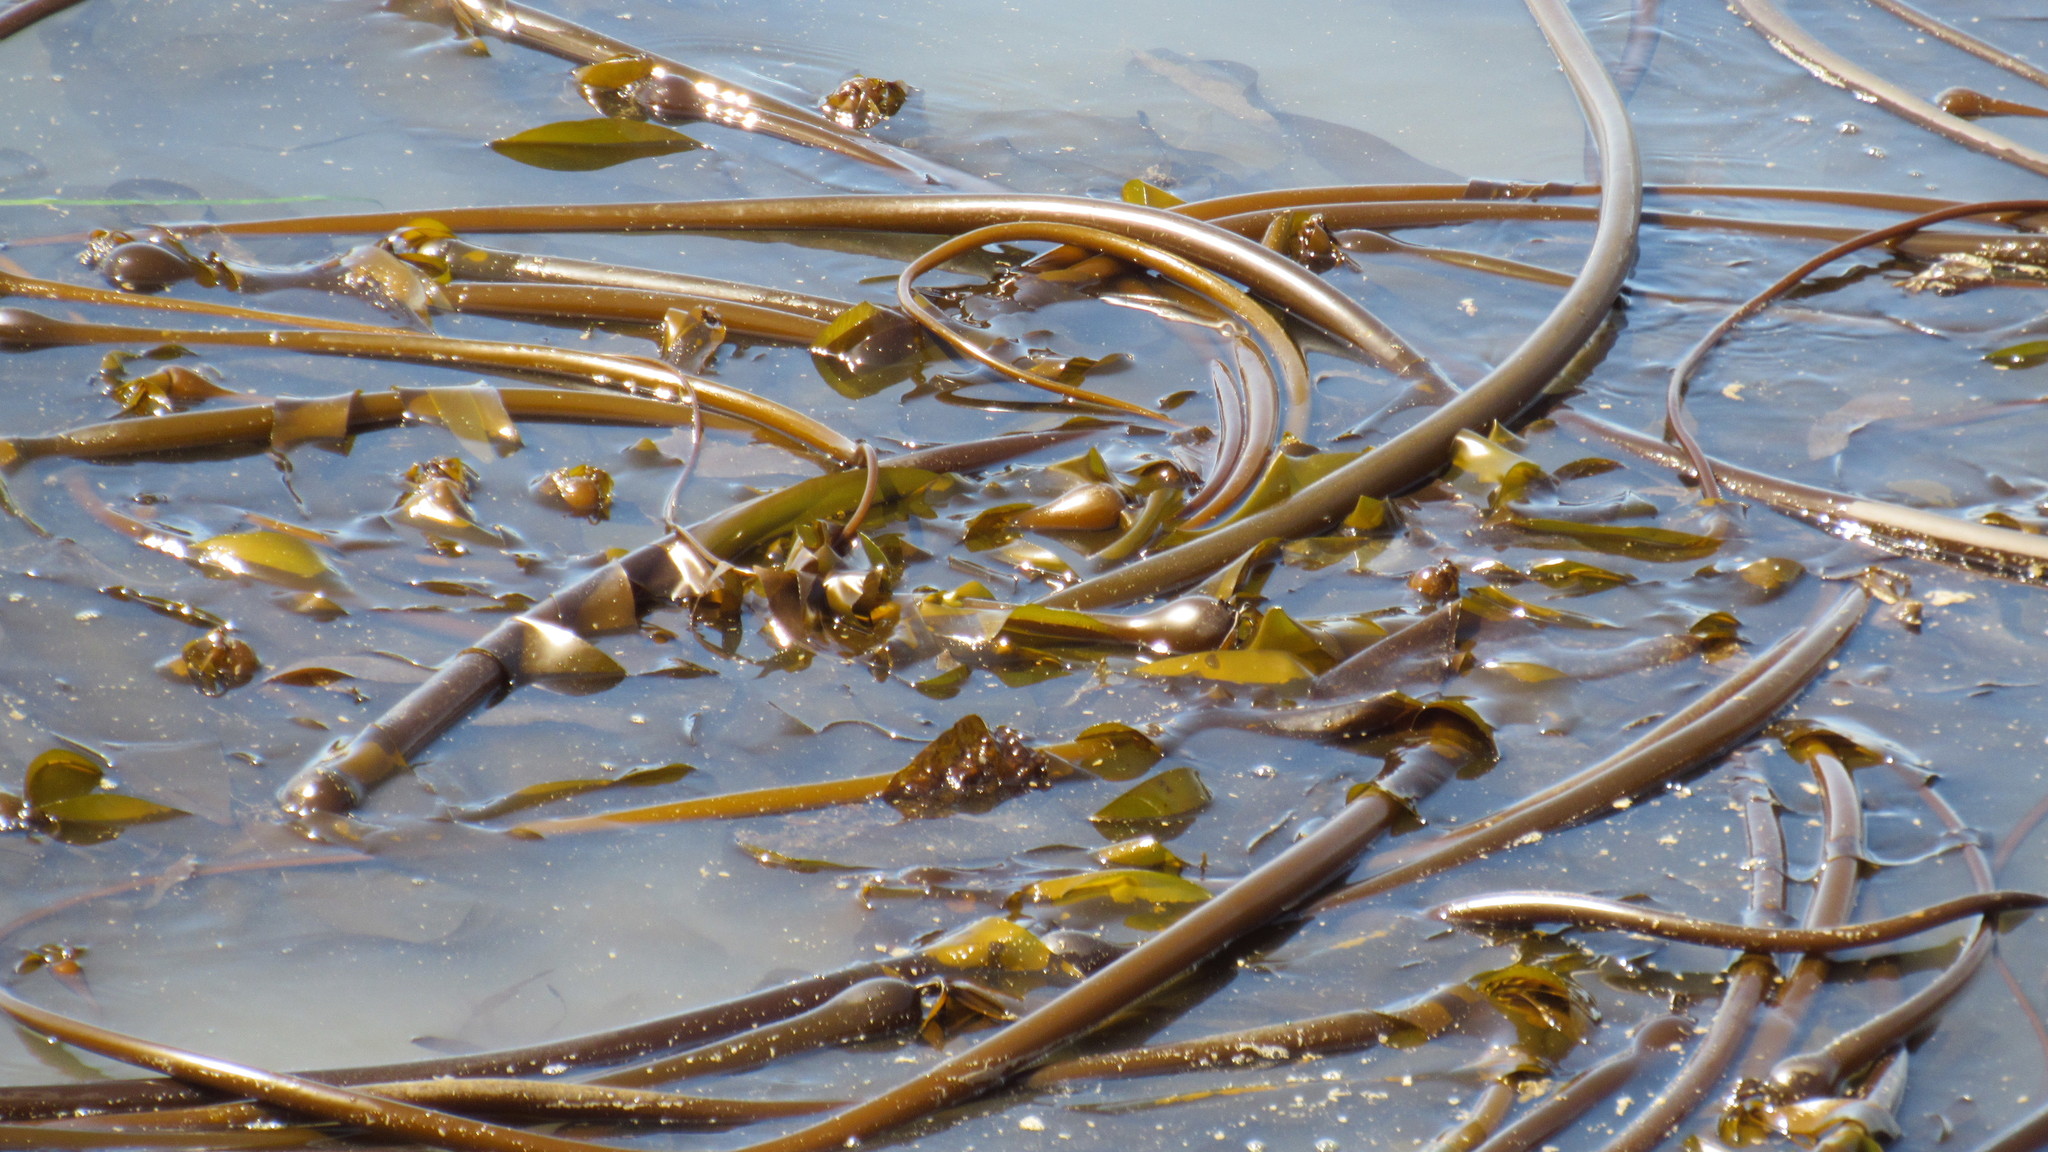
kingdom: Chromista
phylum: Ochrophyta
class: Phaeophyceae
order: Laminariales
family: Laminariaceae
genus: Nereocystis
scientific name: Nereocystis luetkeana
